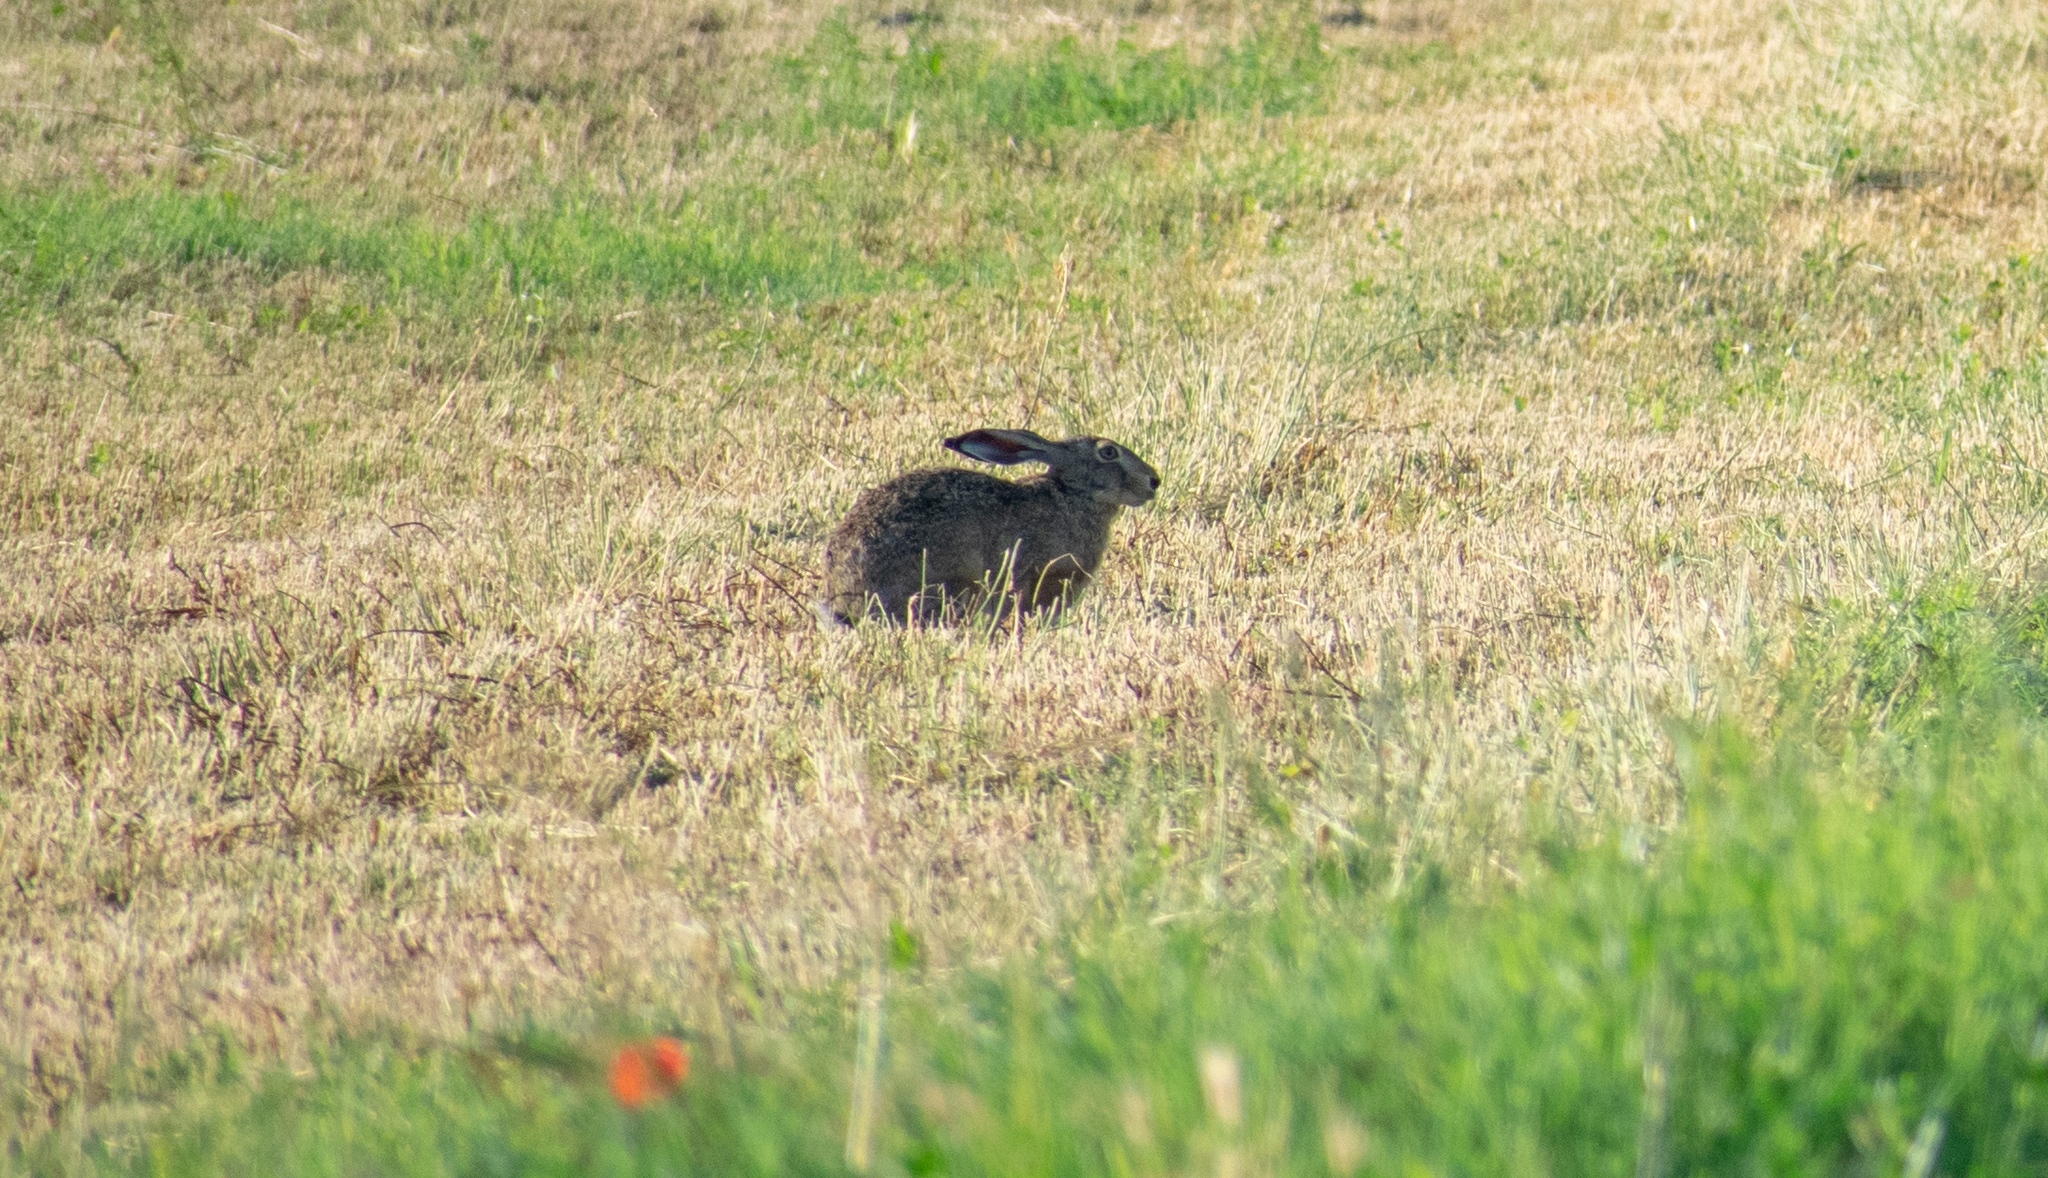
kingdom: Animalia
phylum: Chordata
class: Mammalia
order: Lagomorpha
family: Leporidae
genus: Lepus
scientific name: Lepus europaeus
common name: European hare
